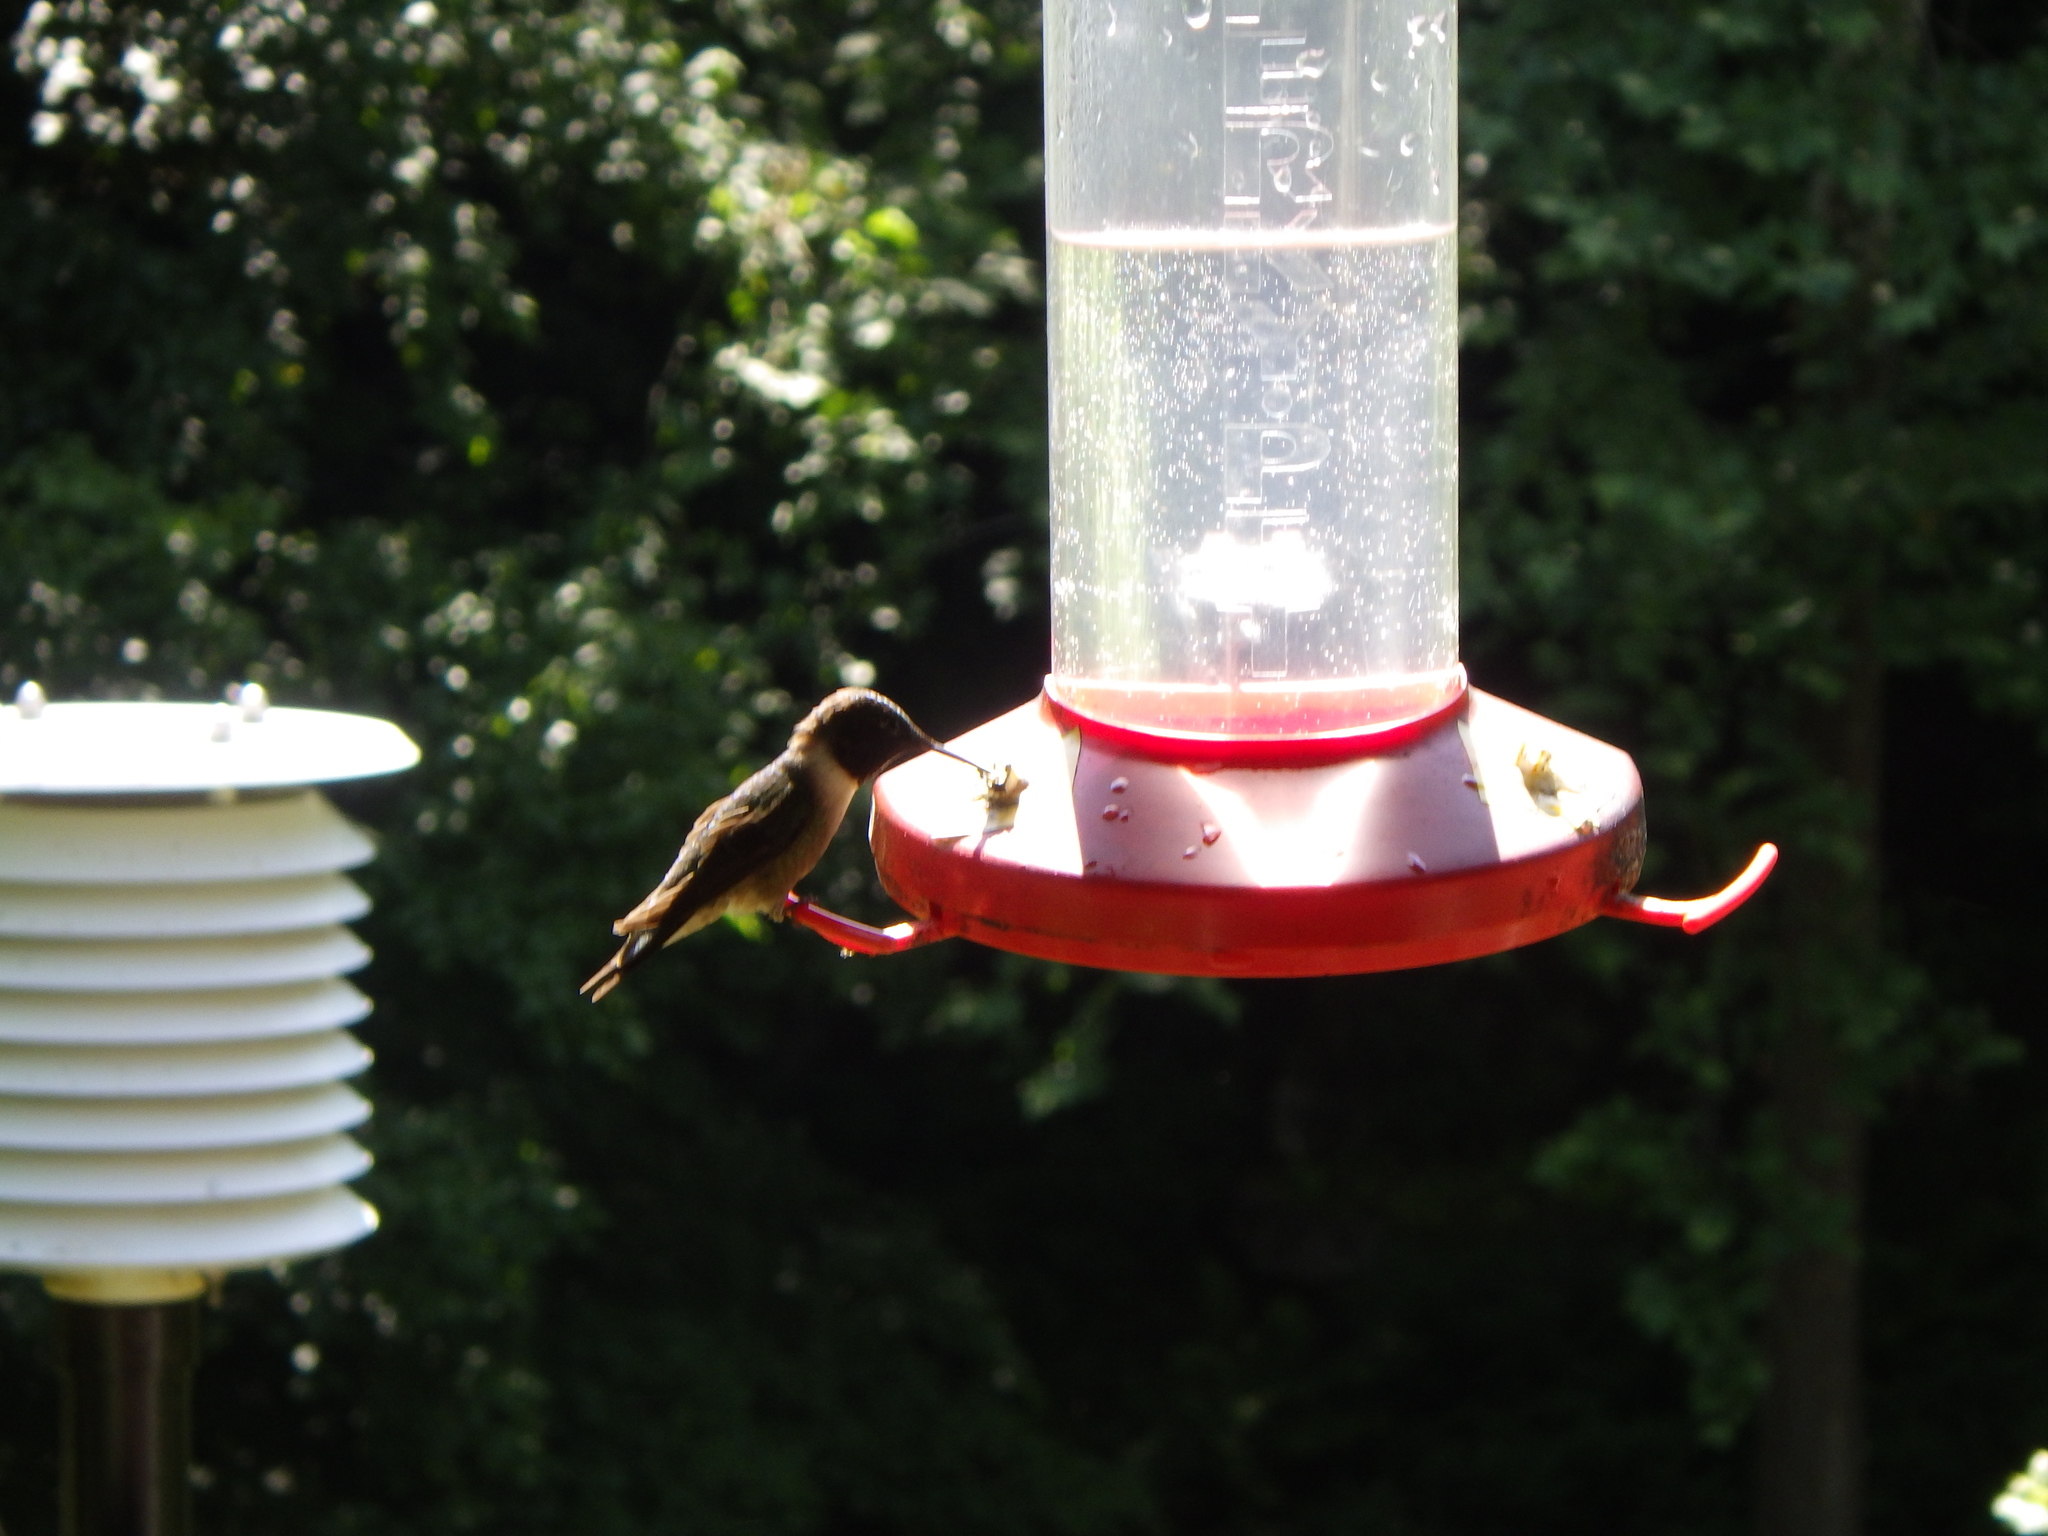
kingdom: Animalia
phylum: Chordata
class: Aves
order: Apodiformes
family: Trochilidae
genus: Archilochus
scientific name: Archilochus colubris
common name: Ruby-throated hummingbird
